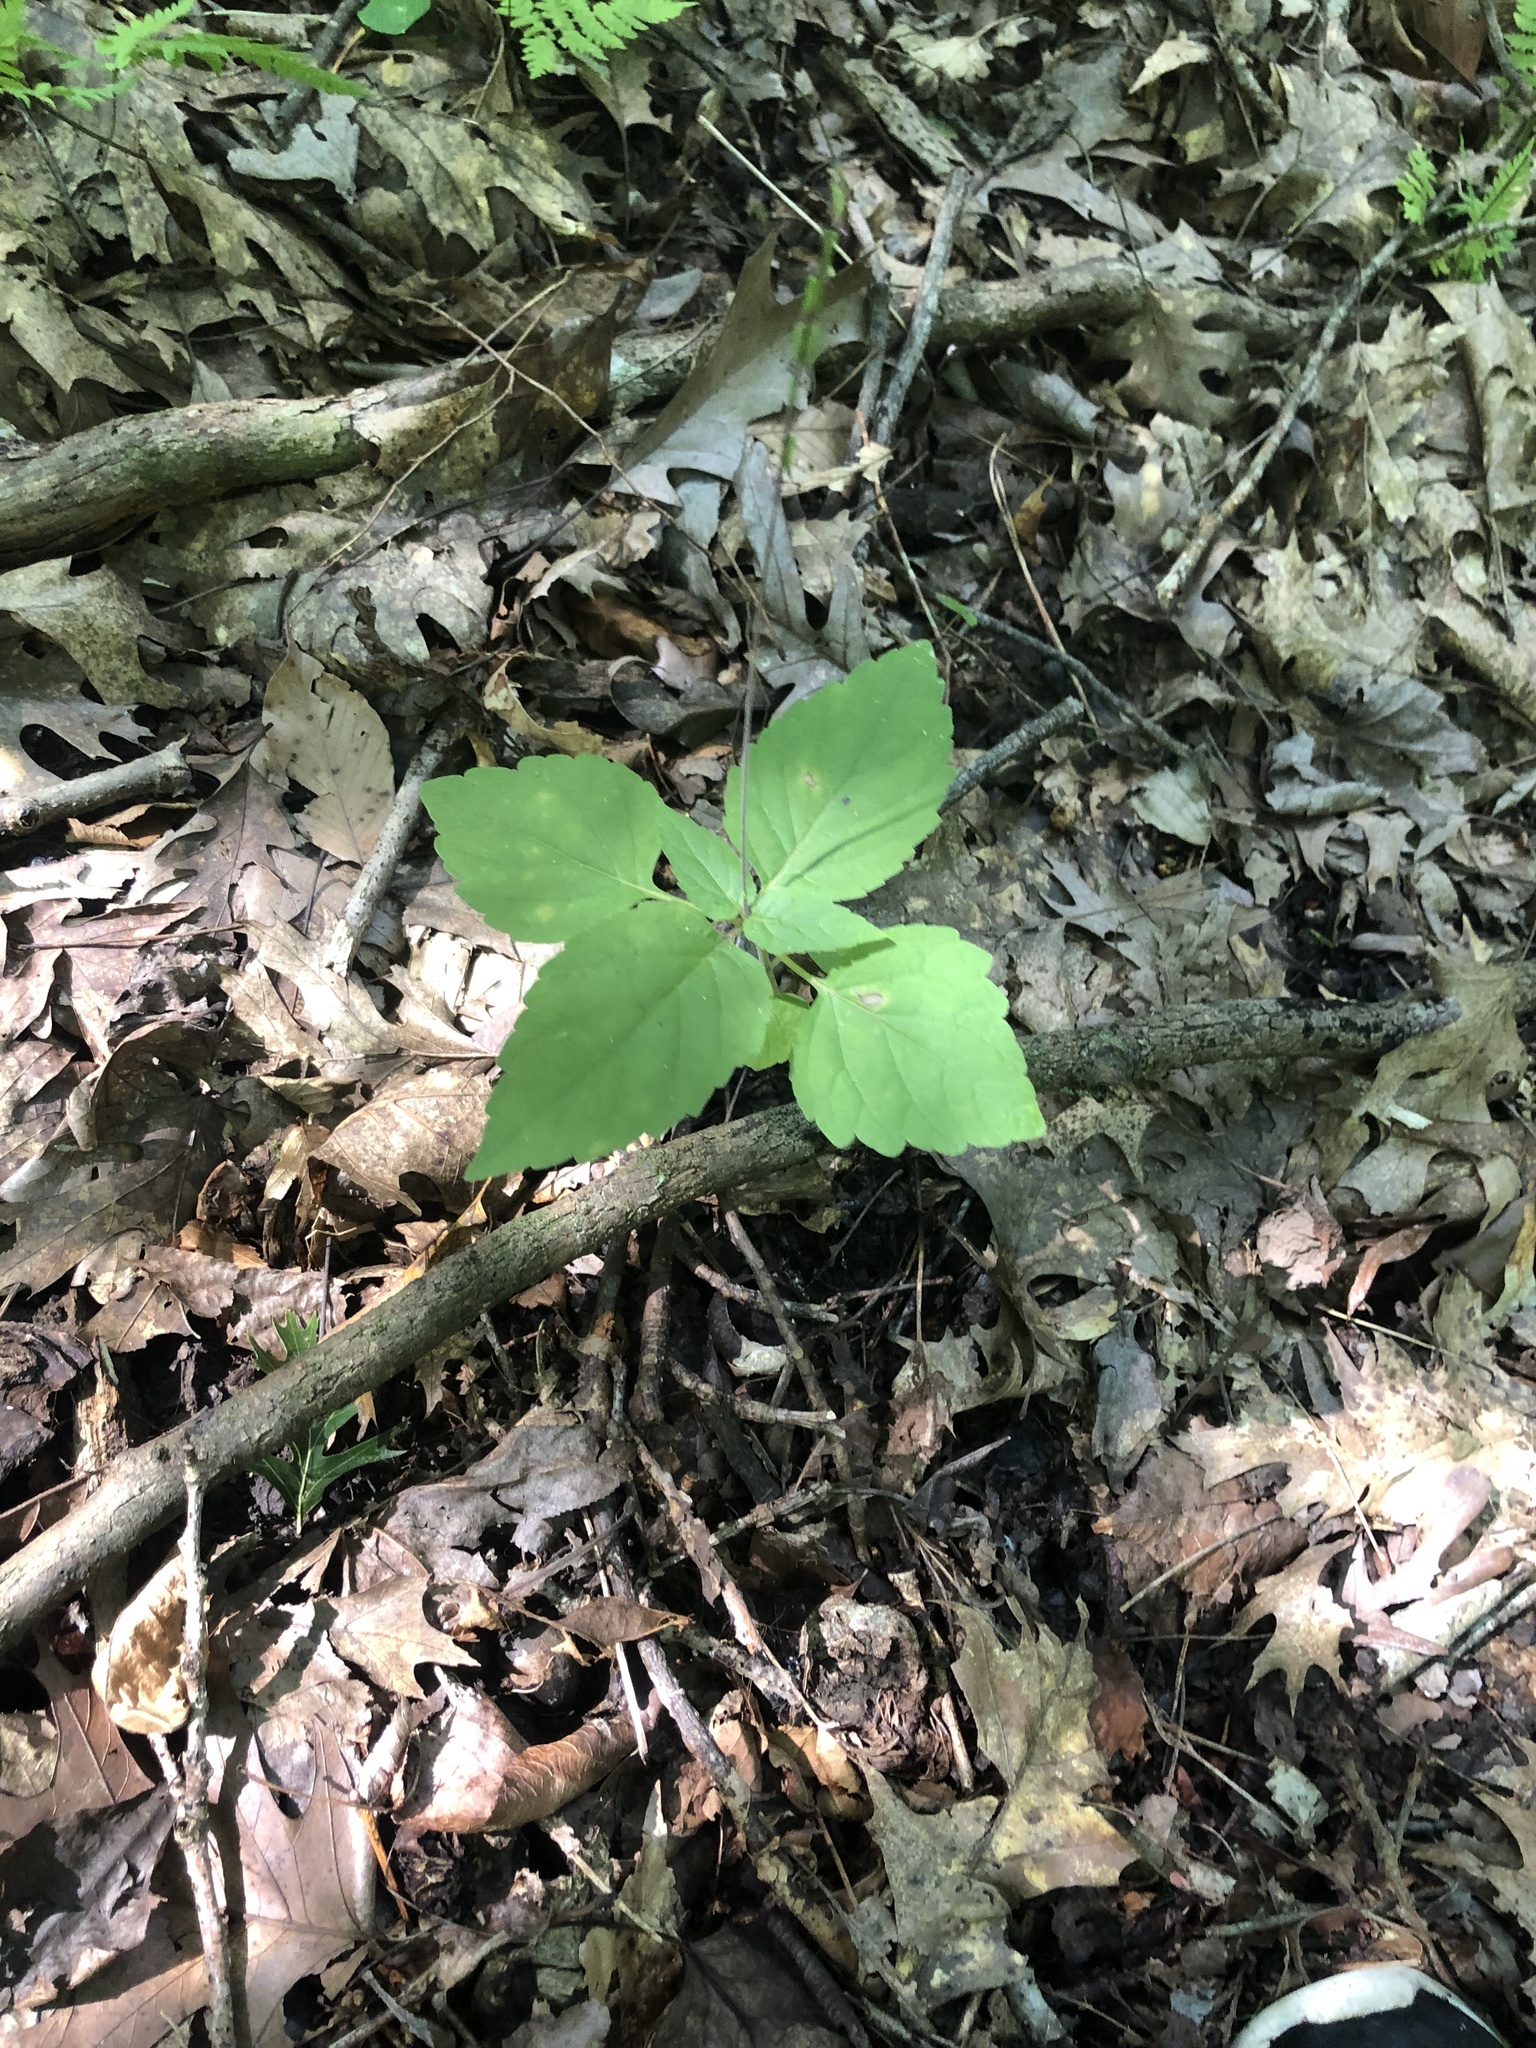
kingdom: Plantae
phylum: Tracheophyta
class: Magnoliopsida
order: Lamiales
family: Phrymaceae
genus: Phryma
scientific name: Phryma leptostachya
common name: American lopseed
